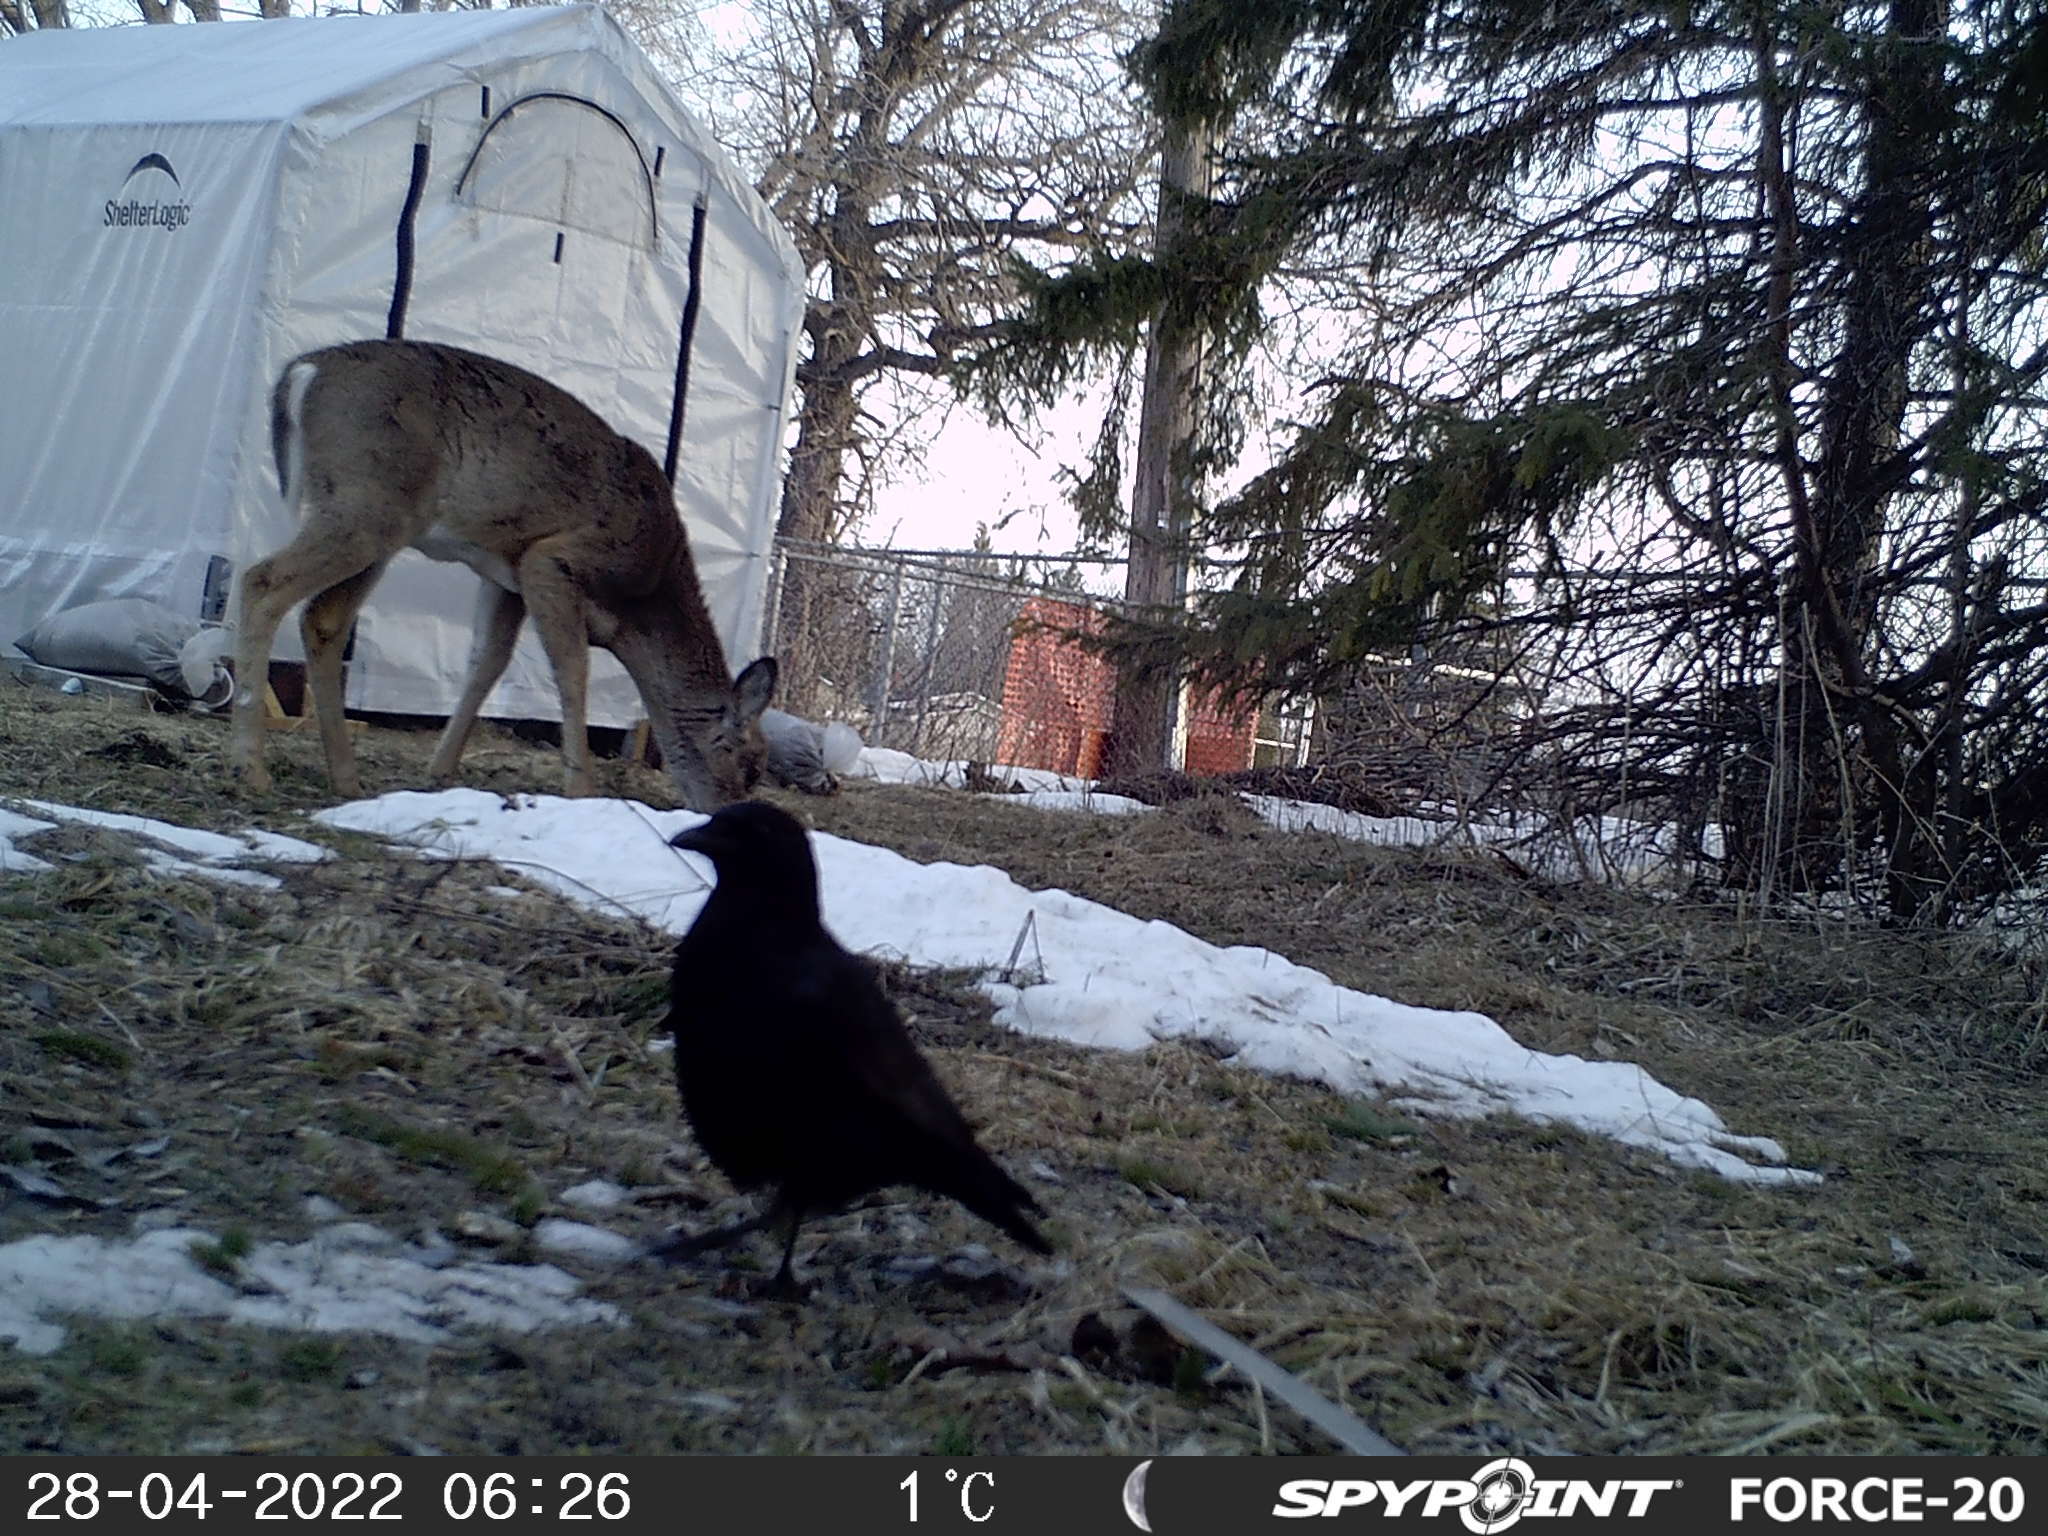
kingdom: Animalia
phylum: Chordata
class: Aves
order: Passeriformes
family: Corvidae
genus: Corvus
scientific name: Corvus brachyrhynchos
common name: American crow
